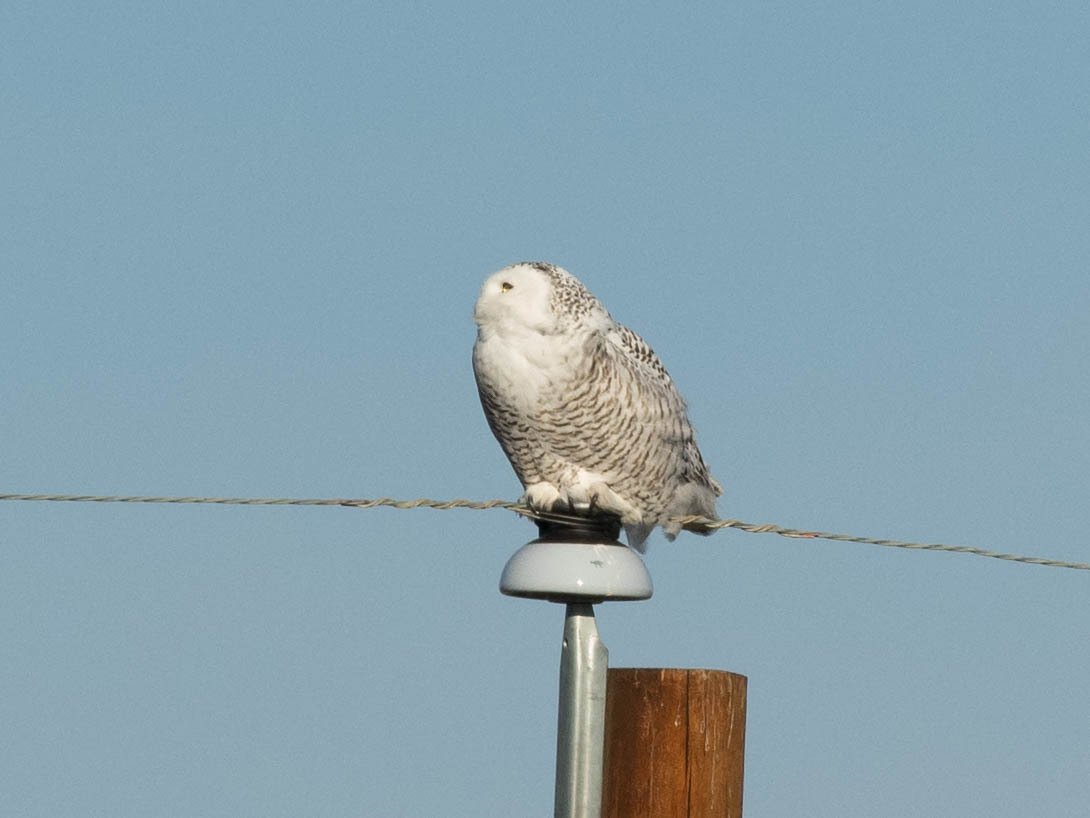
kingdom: Animalia
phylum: Chordata
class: Aves
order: Strigiformes
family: Strigidae
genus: Bubo
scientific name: Bubo scandiacus
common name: Snowy owl
